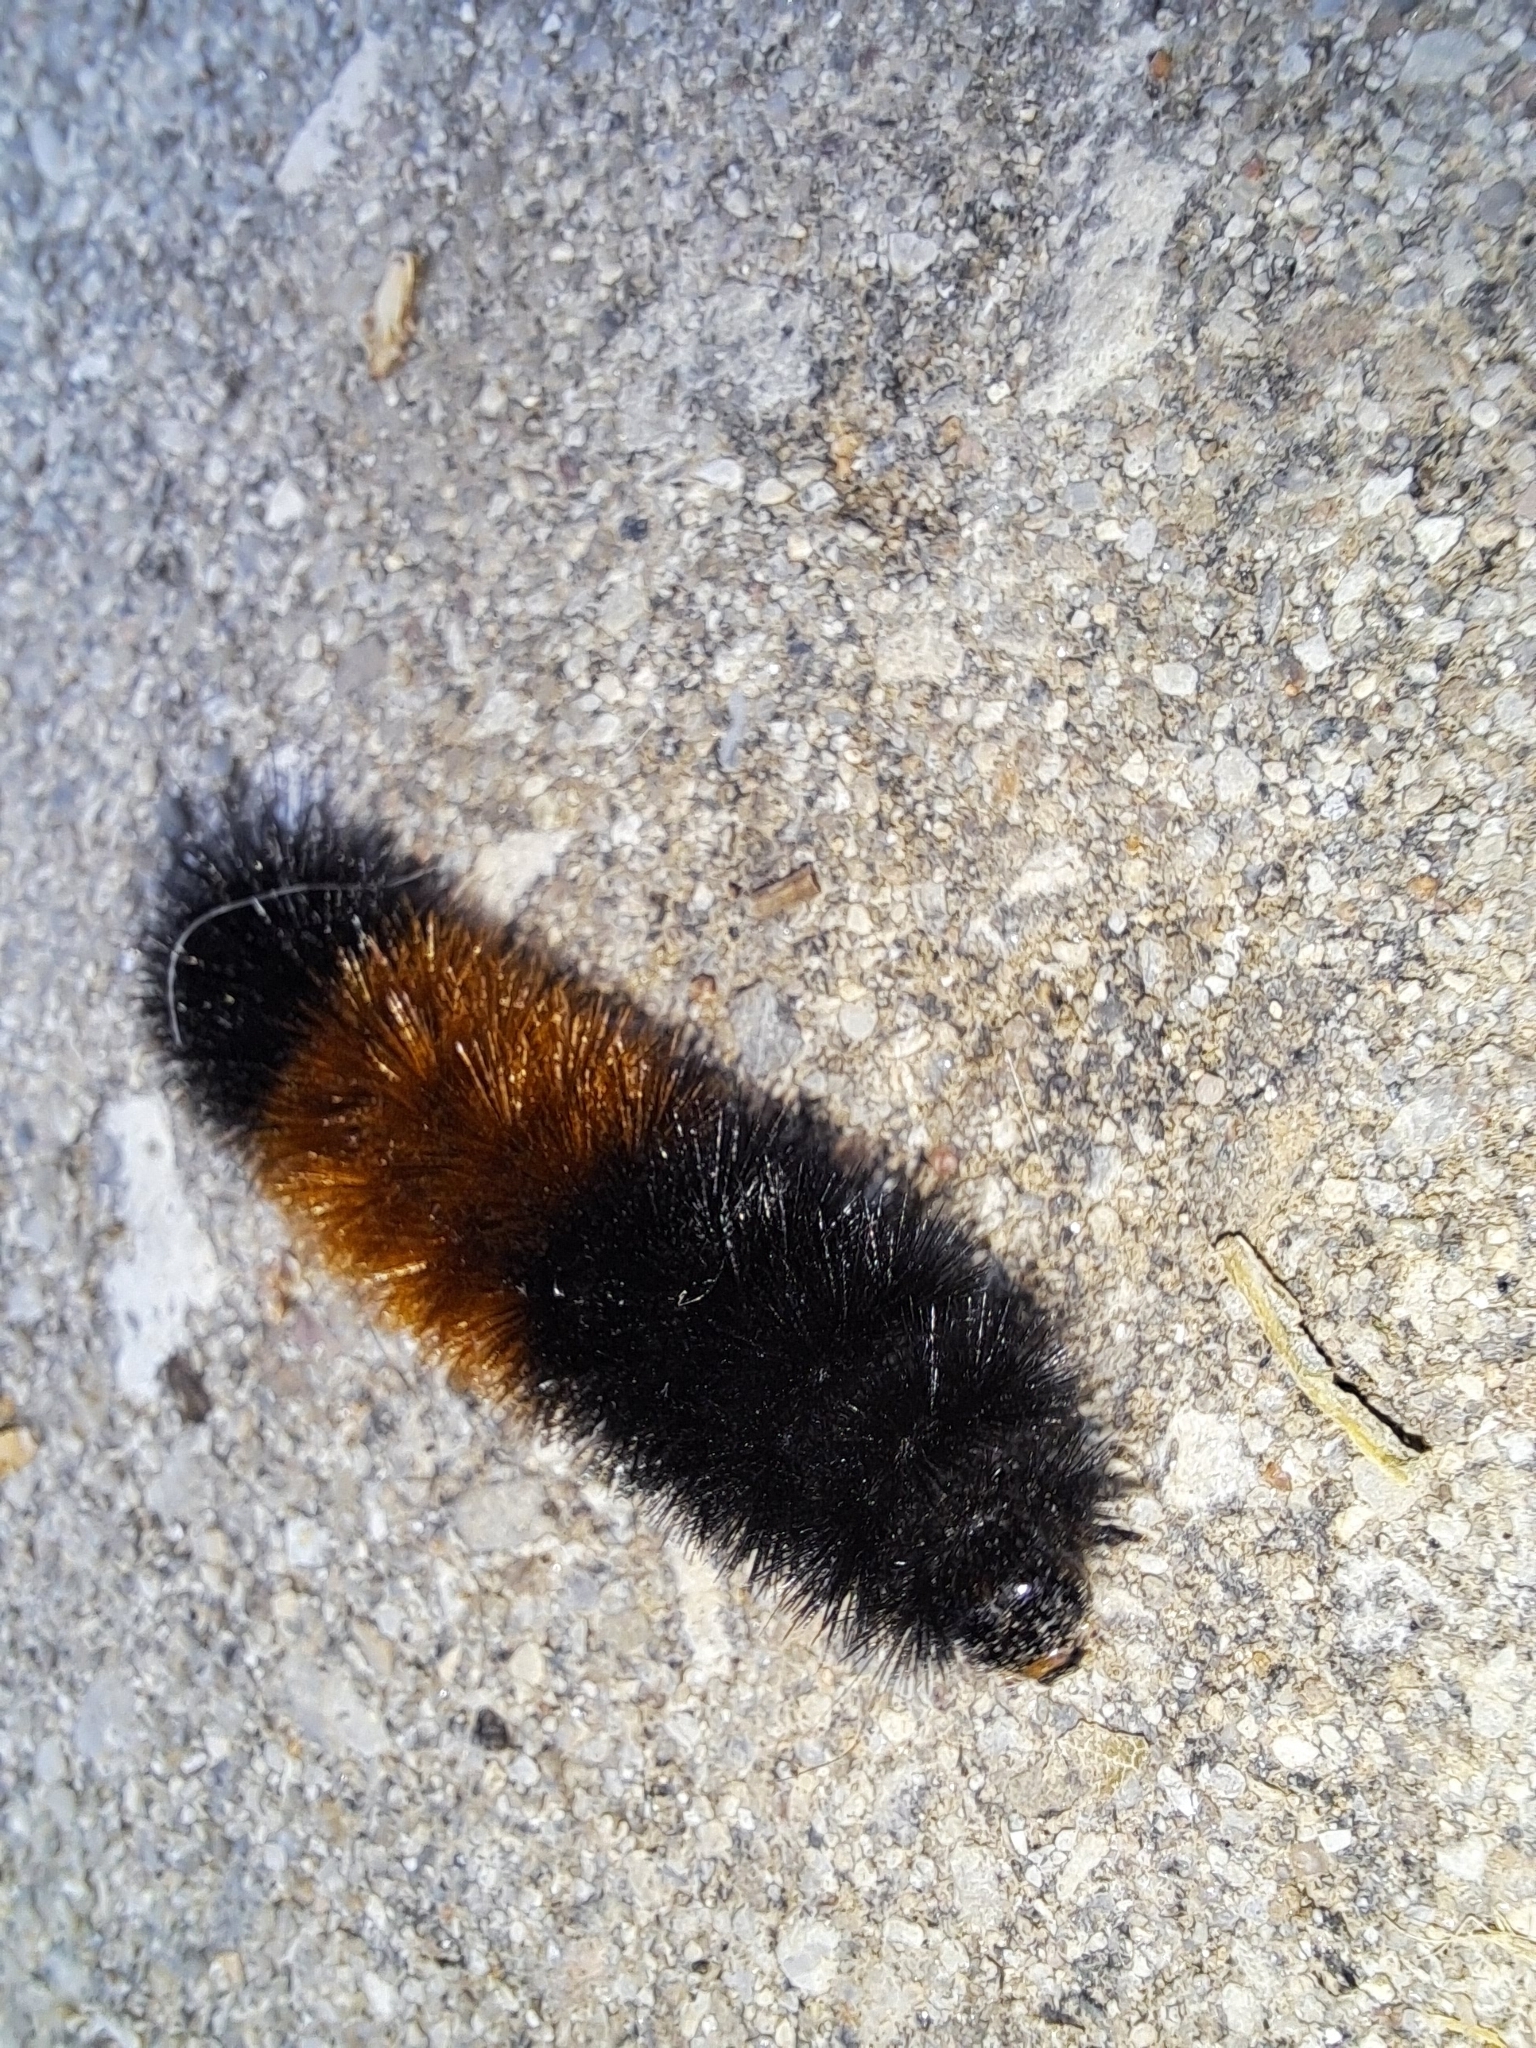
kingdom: Animalia
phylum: Arthropoda
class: Insecta
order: Lepidoptera
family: Erebidae
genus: Pyrrharctia
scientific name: Pyrrharctia isabella
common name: Isabella tiger moth
